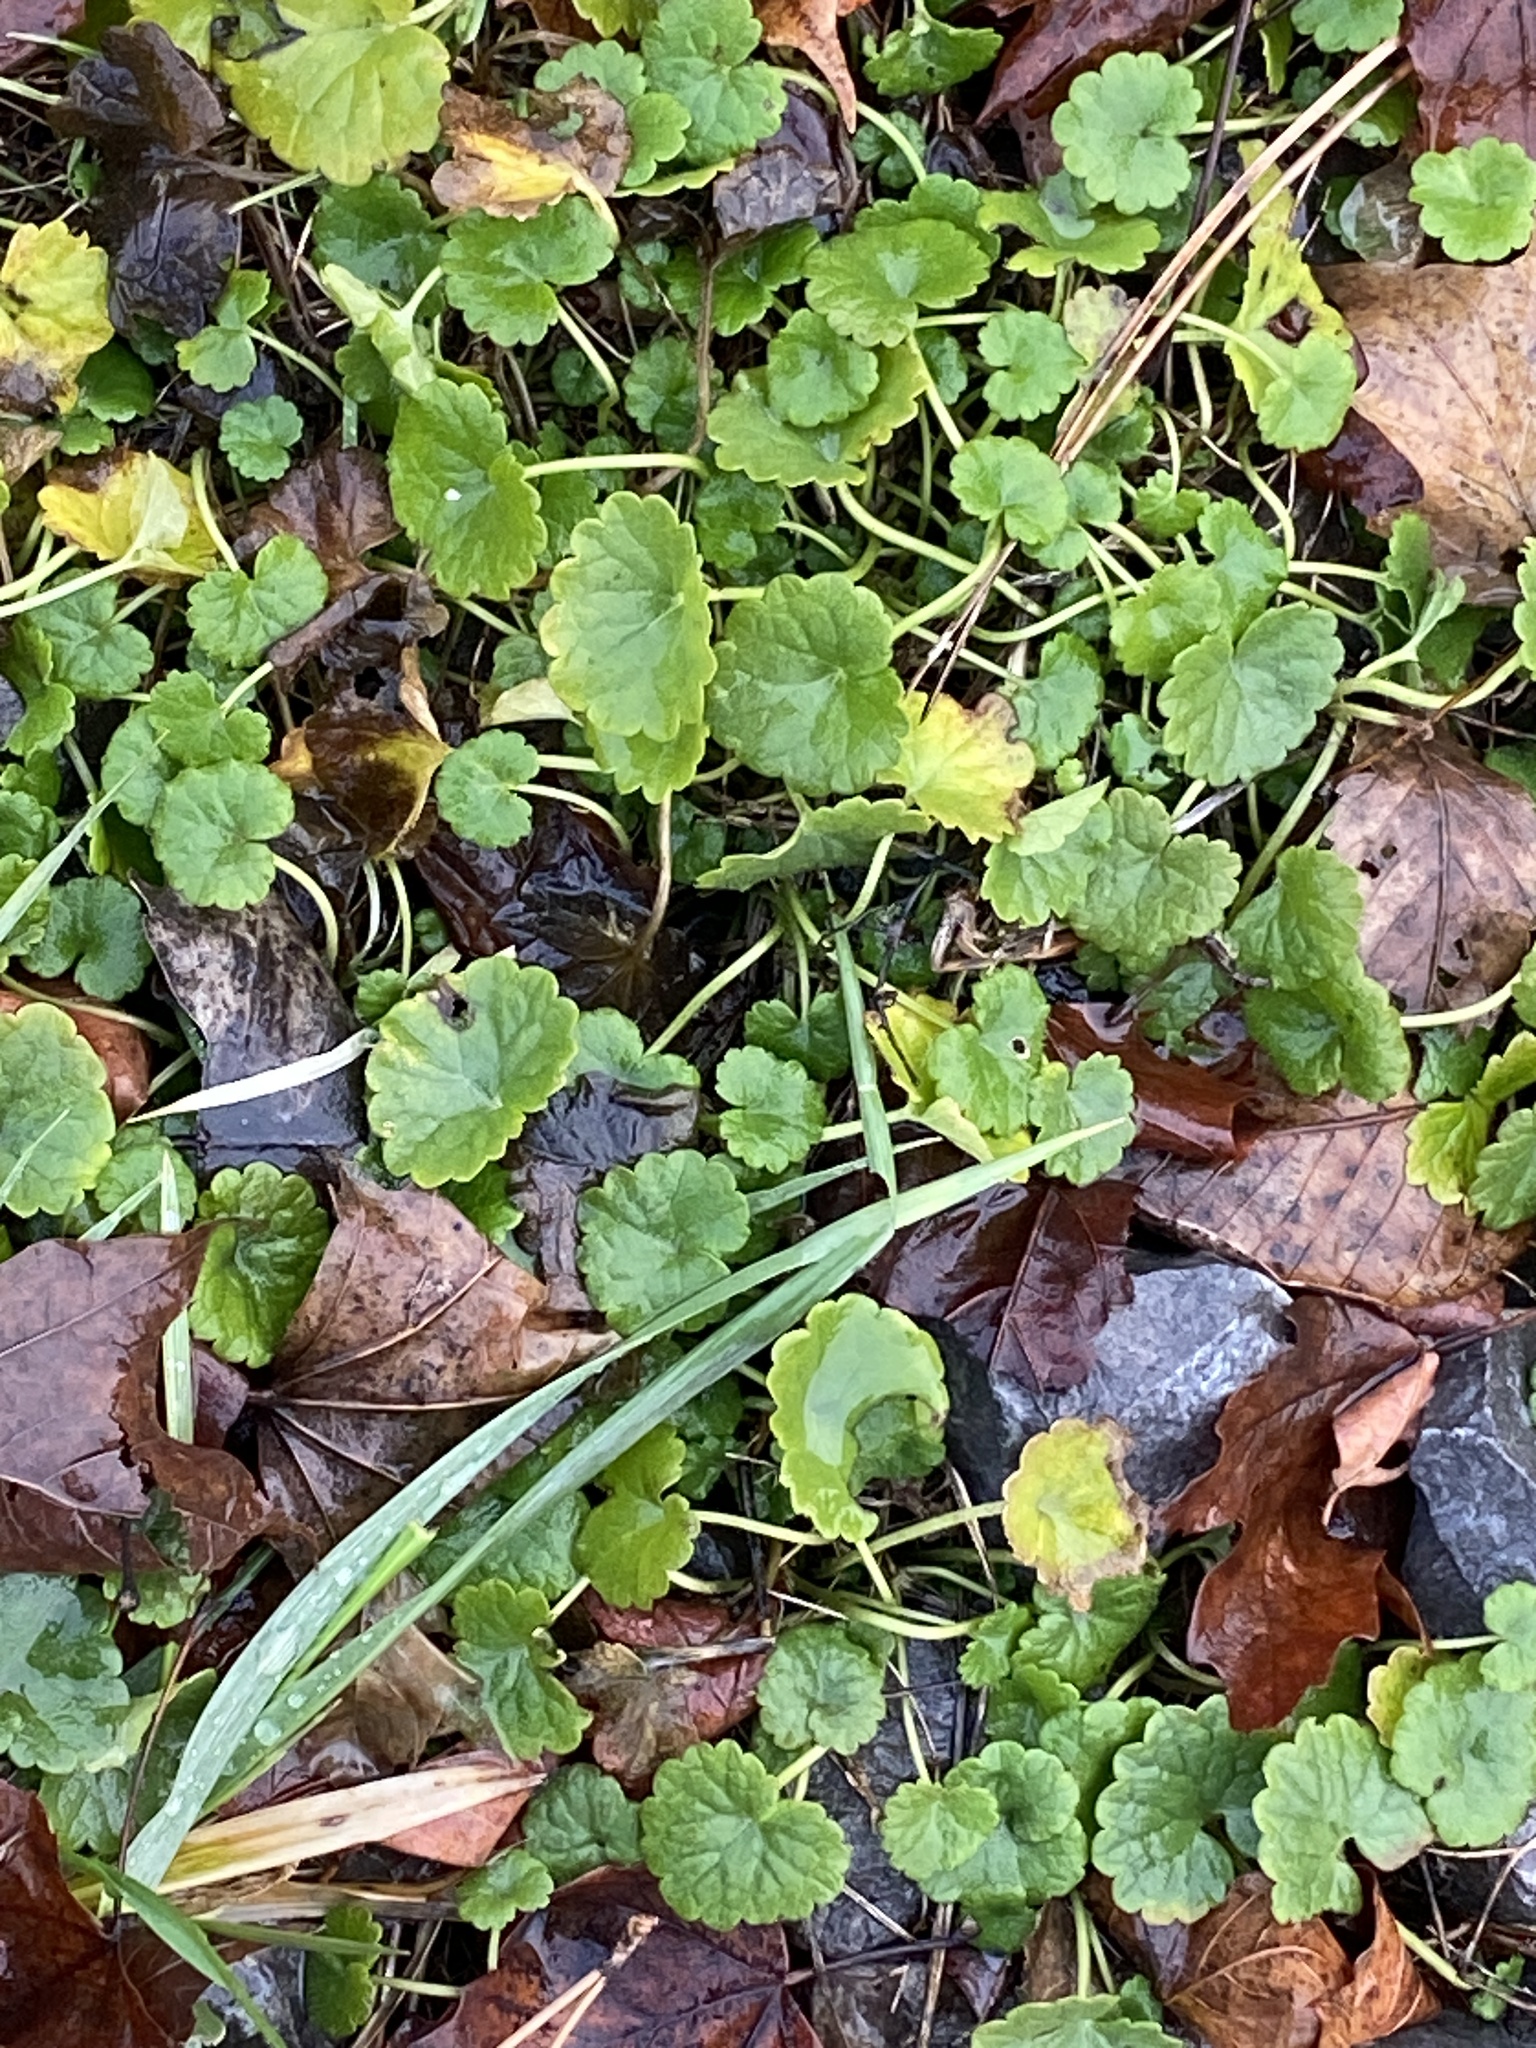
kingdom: Plantae
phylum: Tracheophyta
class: Magnoliopsida
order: Lamiales
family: Lamiaceae
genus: Glechoma
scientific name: Glechoma hederacea
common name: Ground ivy
